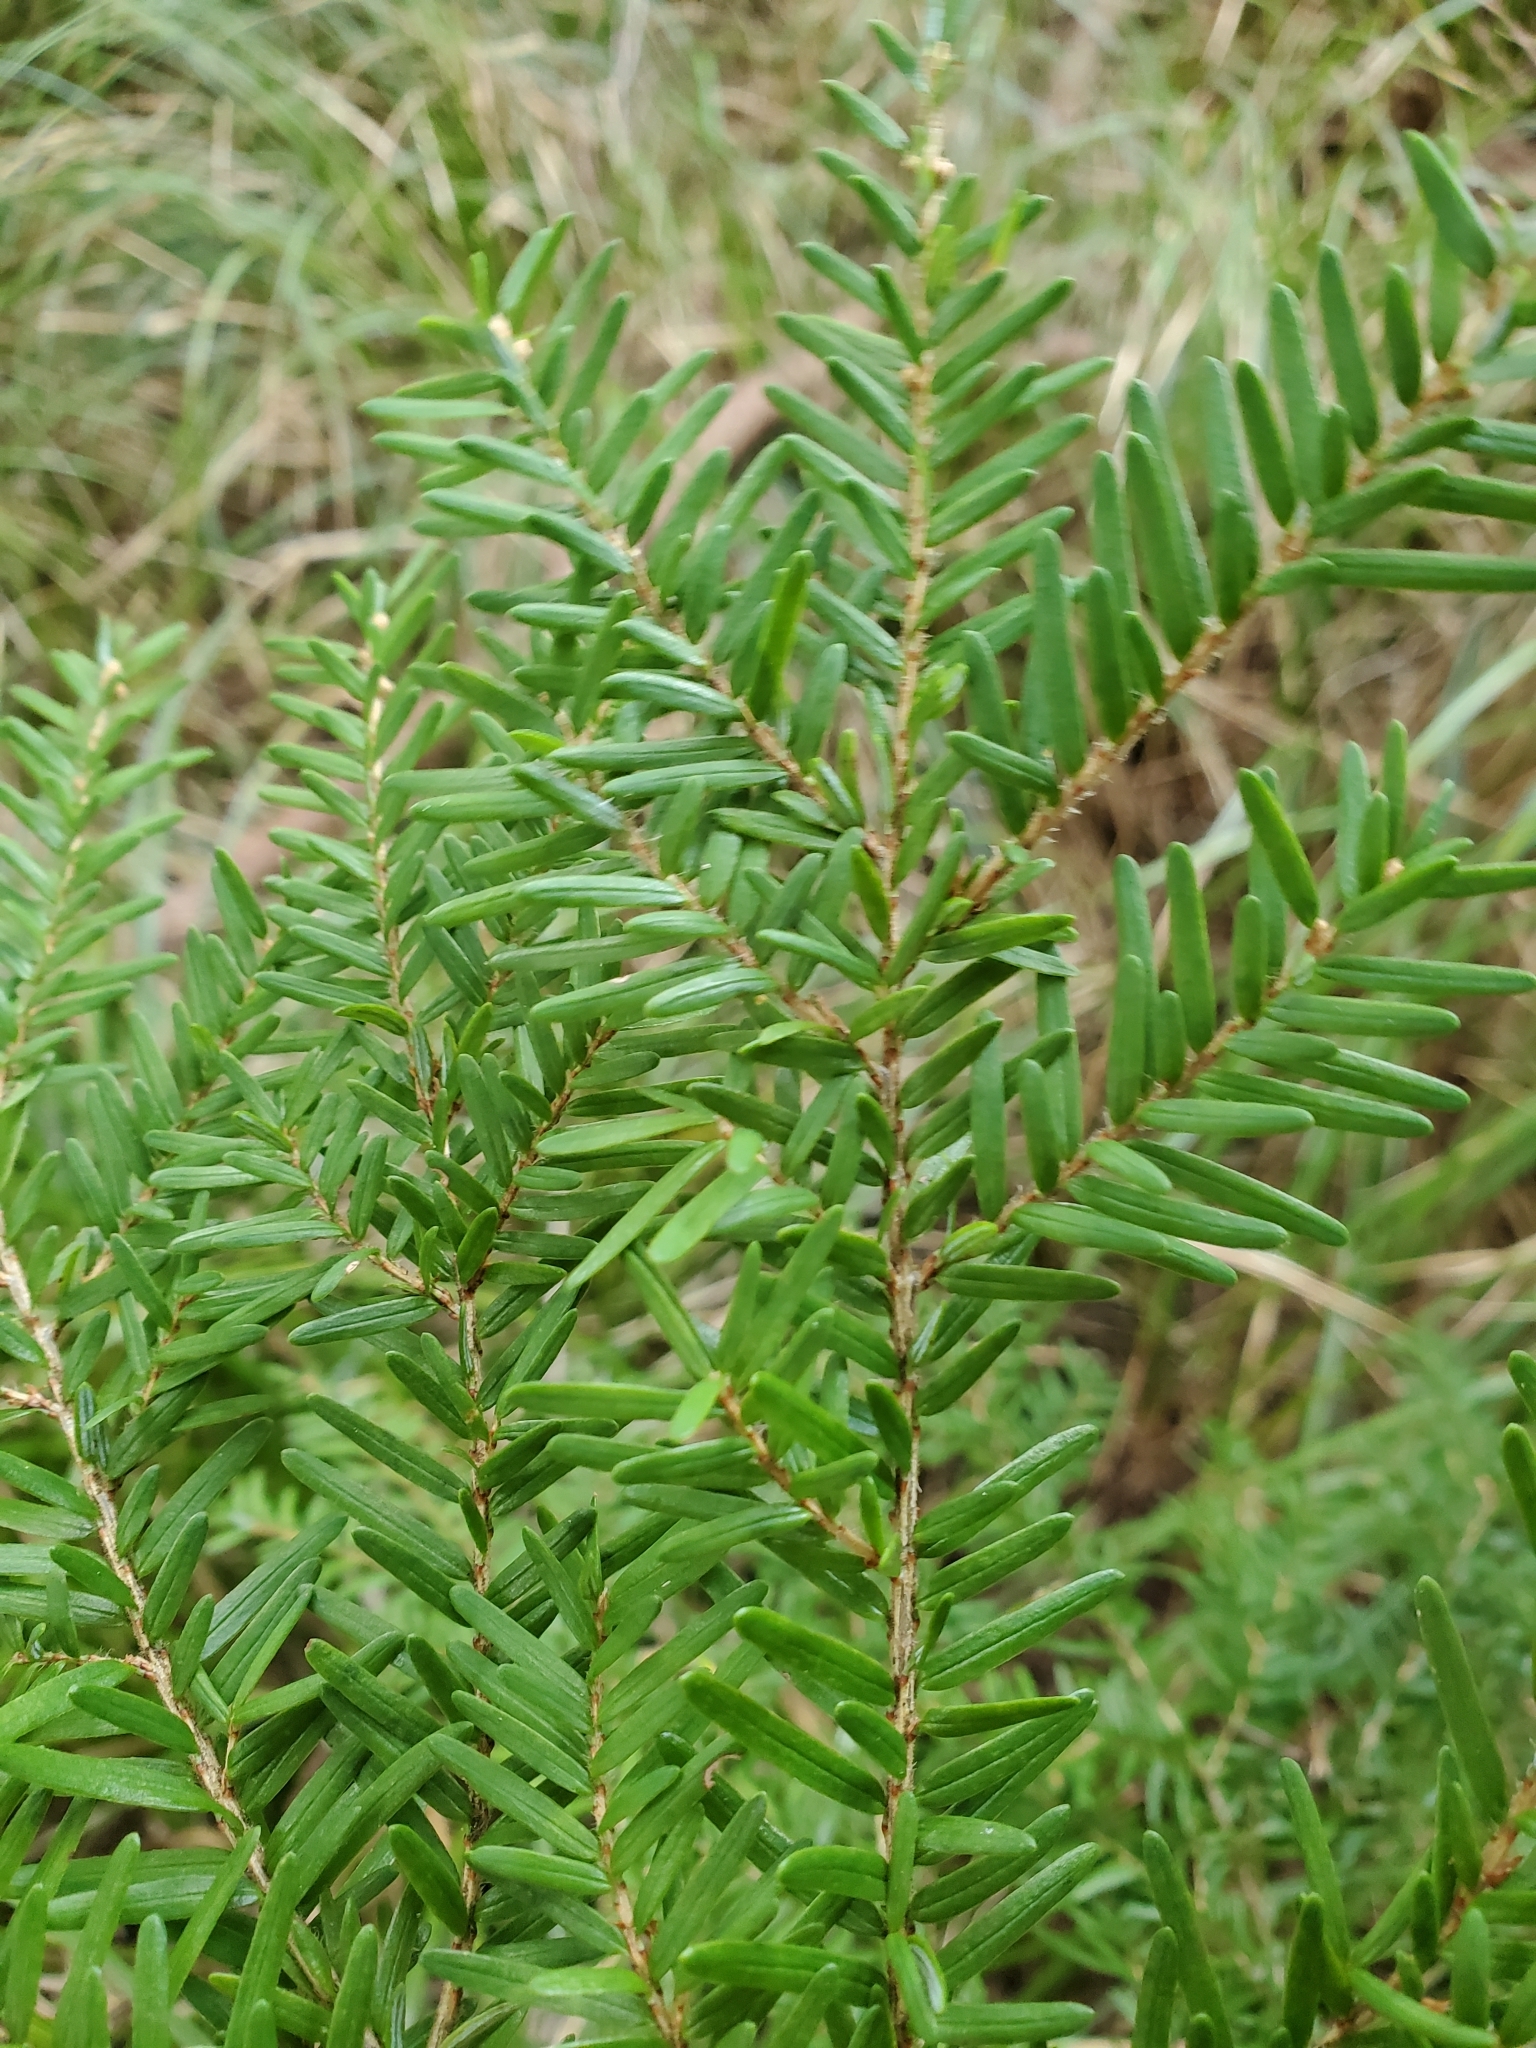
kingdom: Plantae
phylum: Tracheophyta
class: Pinopsida
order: Pinales
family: Pinaceae
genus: Tsuga
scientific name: Tsuga heterophylla
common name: Western hemlock
